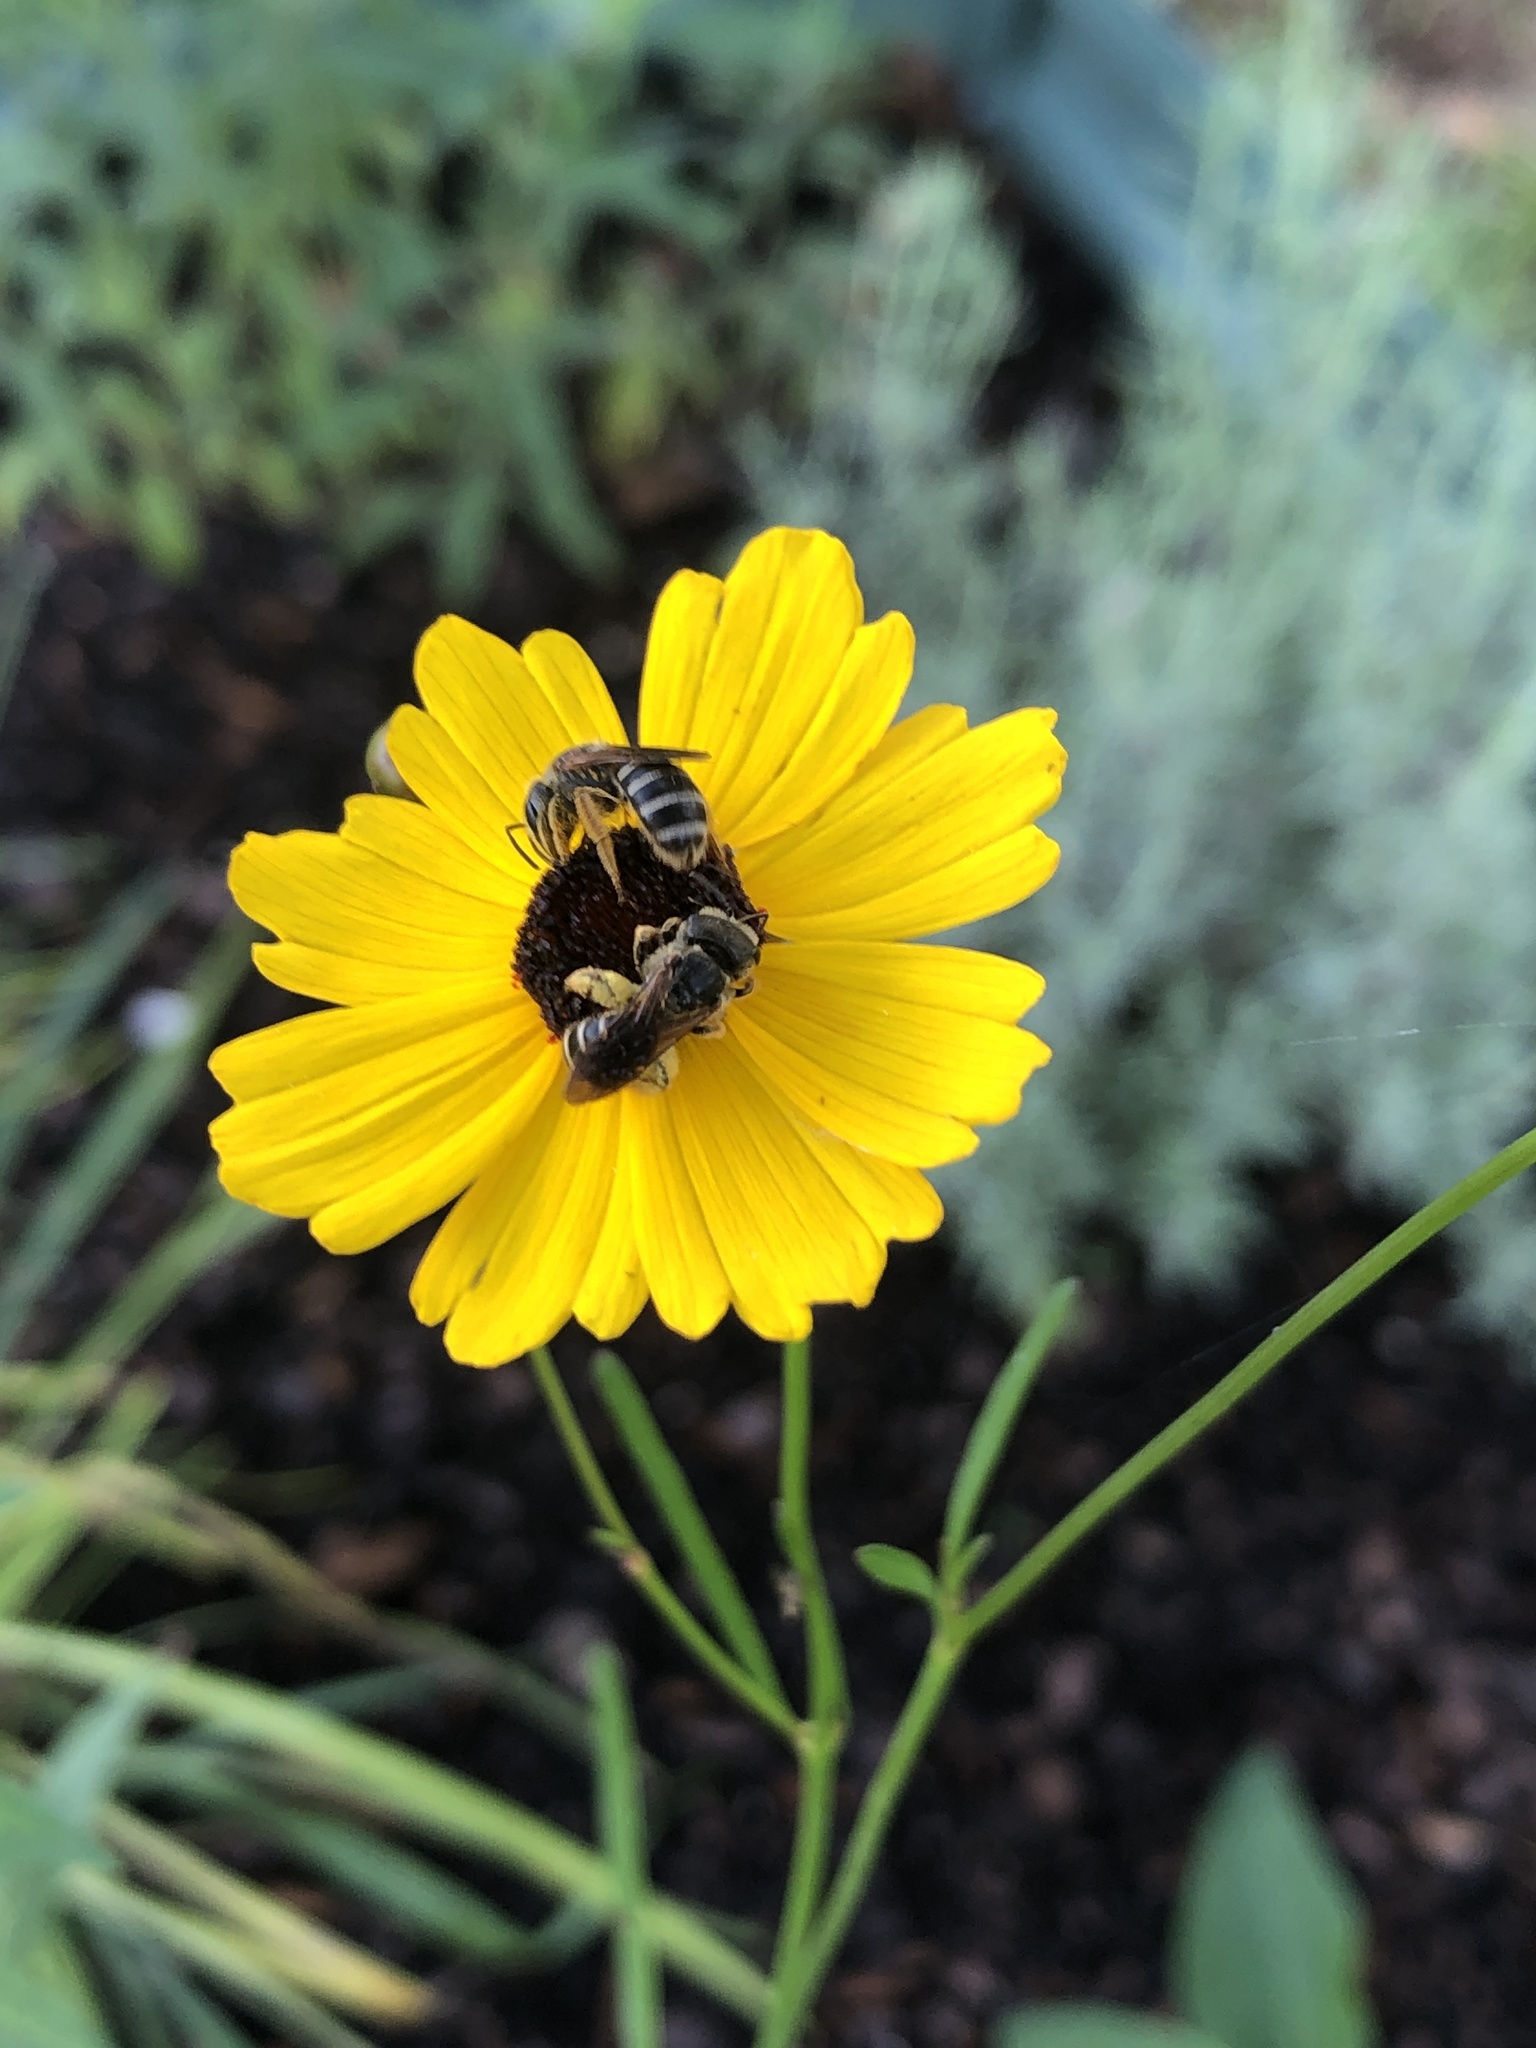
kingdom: Animalia
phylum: Arthropoda
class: Insecta
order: Hymenoptera
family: Halictidae
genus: Halictus
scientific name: Halictus poeyi
